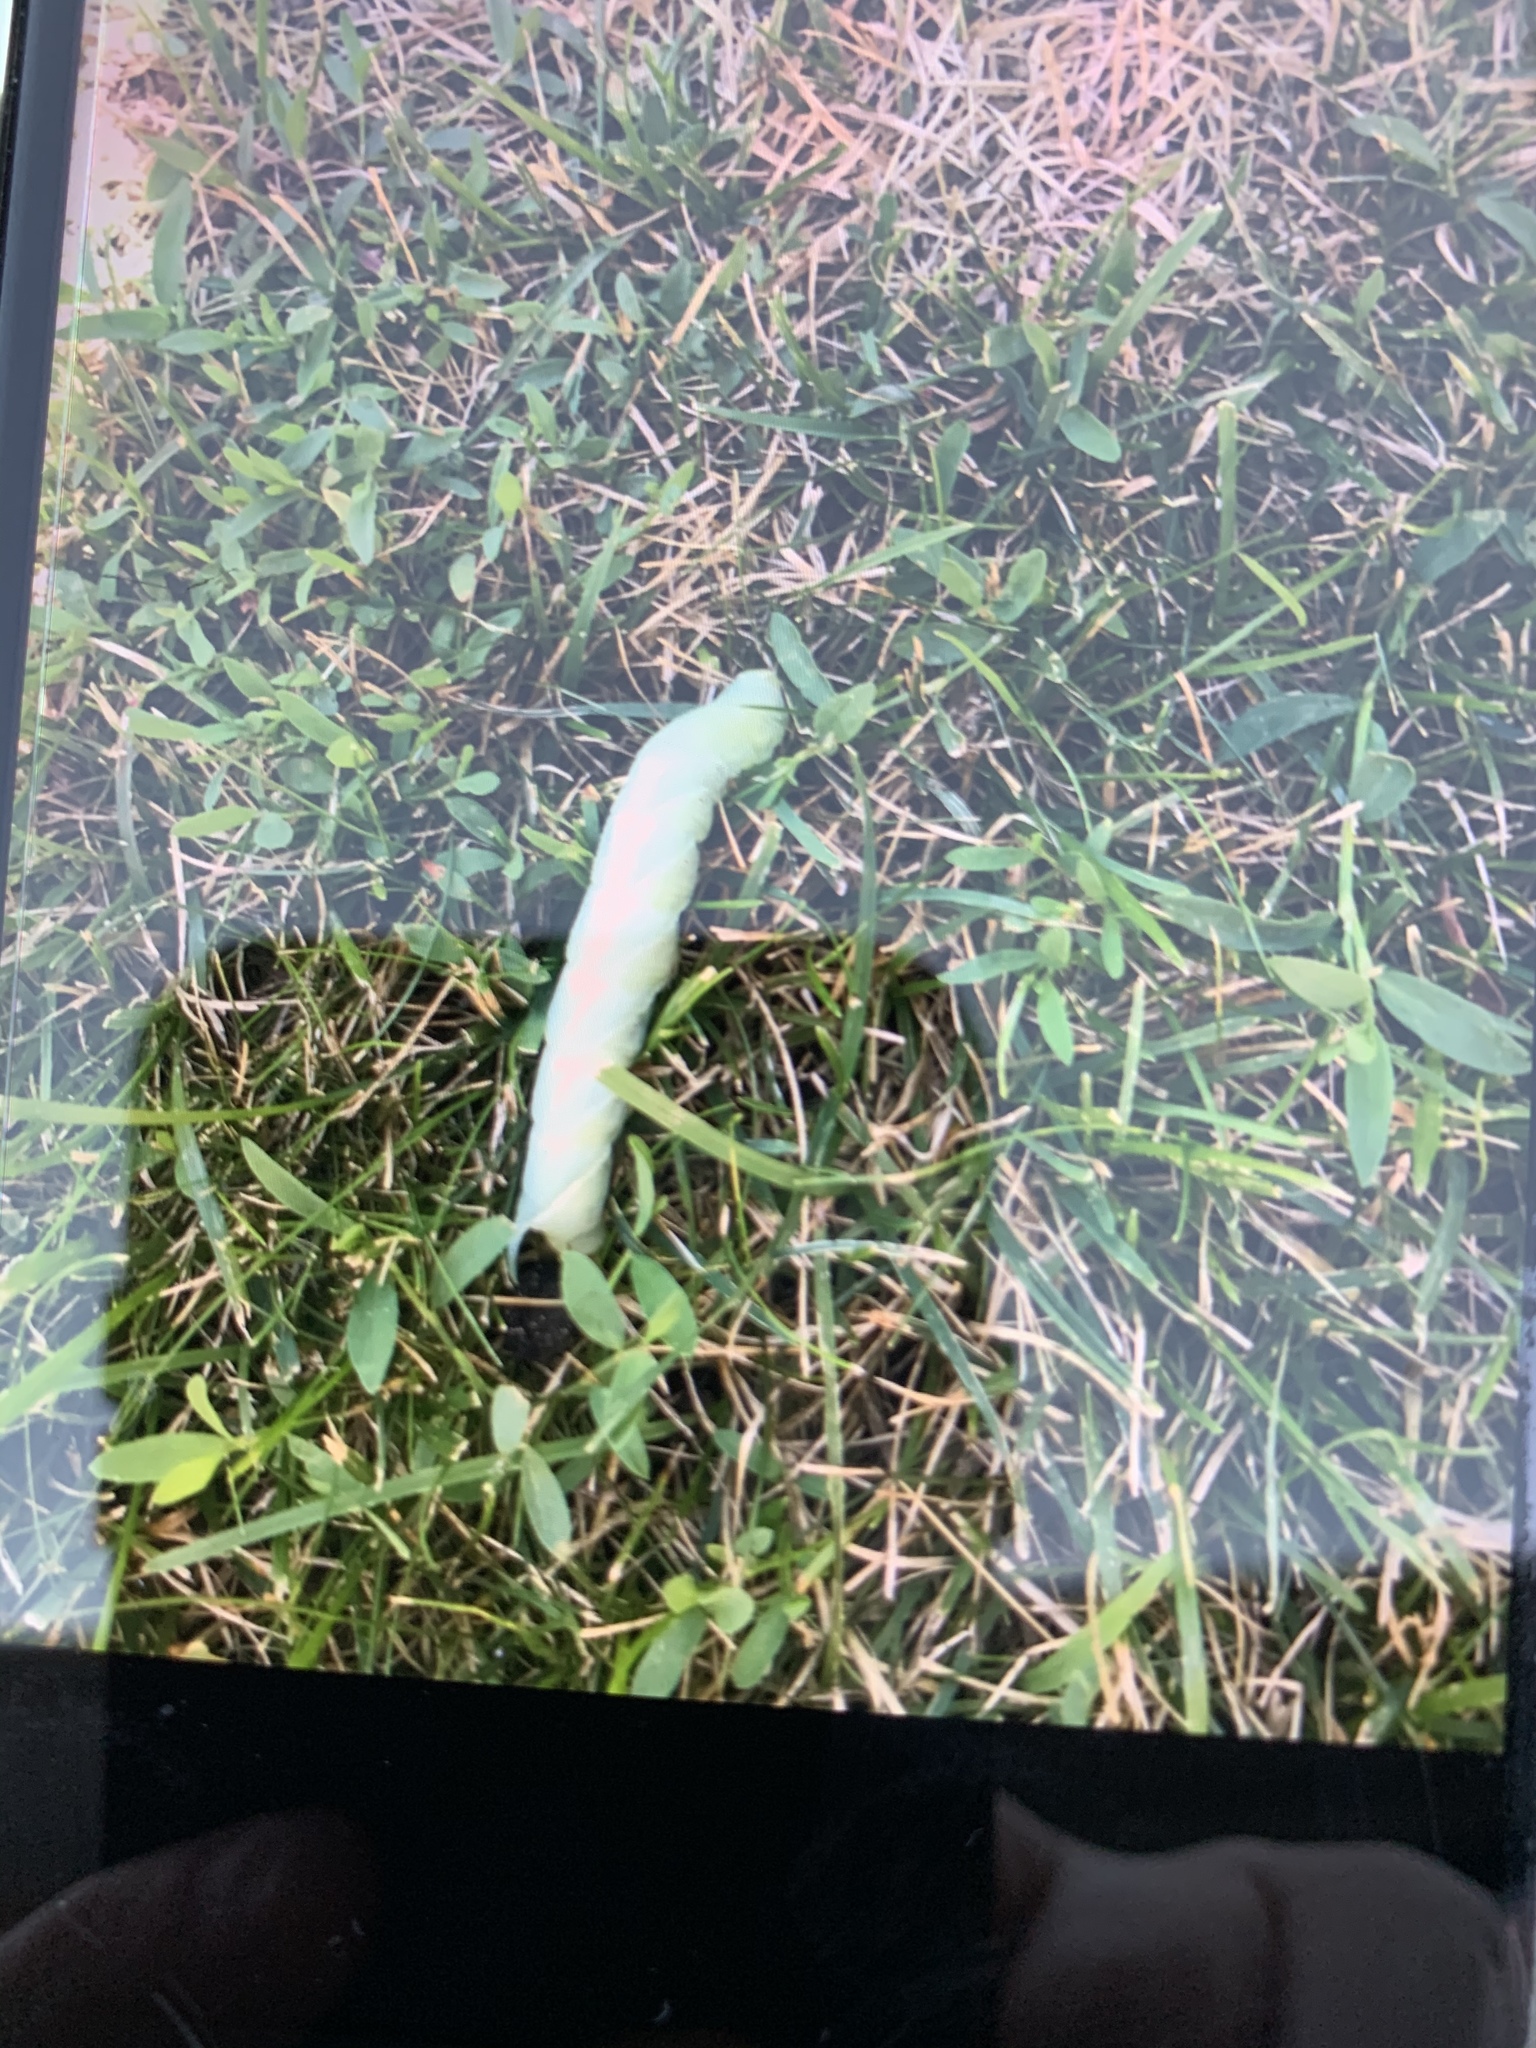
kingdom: Animalia
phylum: Arthropoda
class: Insecta
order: Lepidoptera
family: Sphingidae
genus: Sphinx
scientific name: Sphinx chersis
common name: Great ash sphinx
